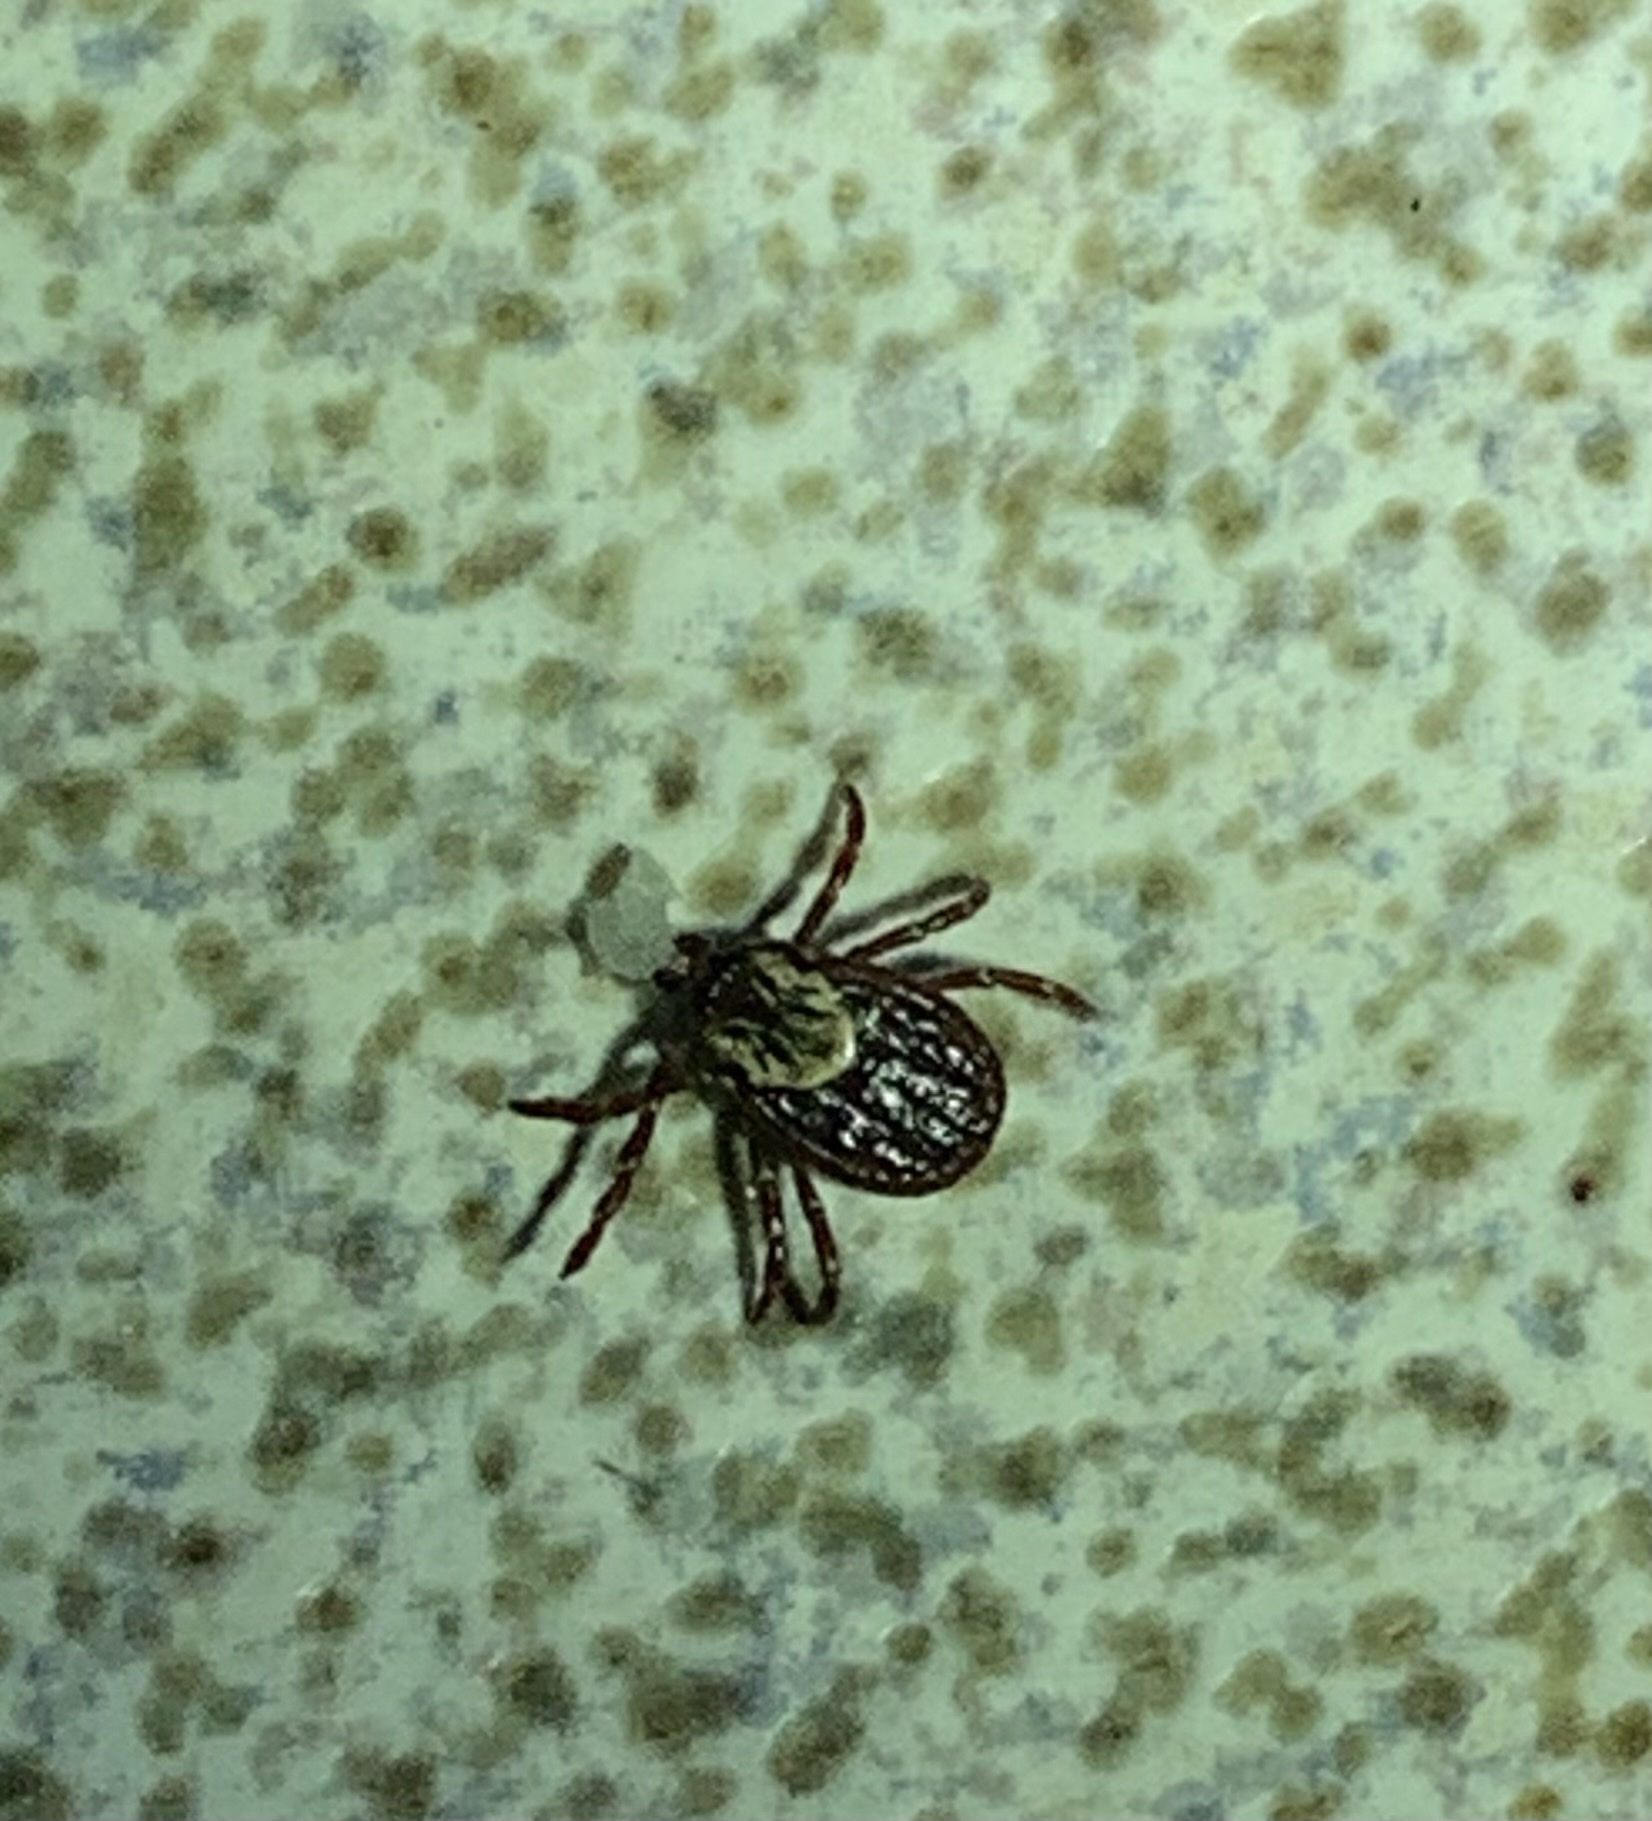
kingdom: Animalia
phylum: Arthropoda
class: Arachnida
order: Ixodida
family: Ixodidae
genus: Dermacentor
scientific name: Dermacentor variabilis
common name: American dog tick
